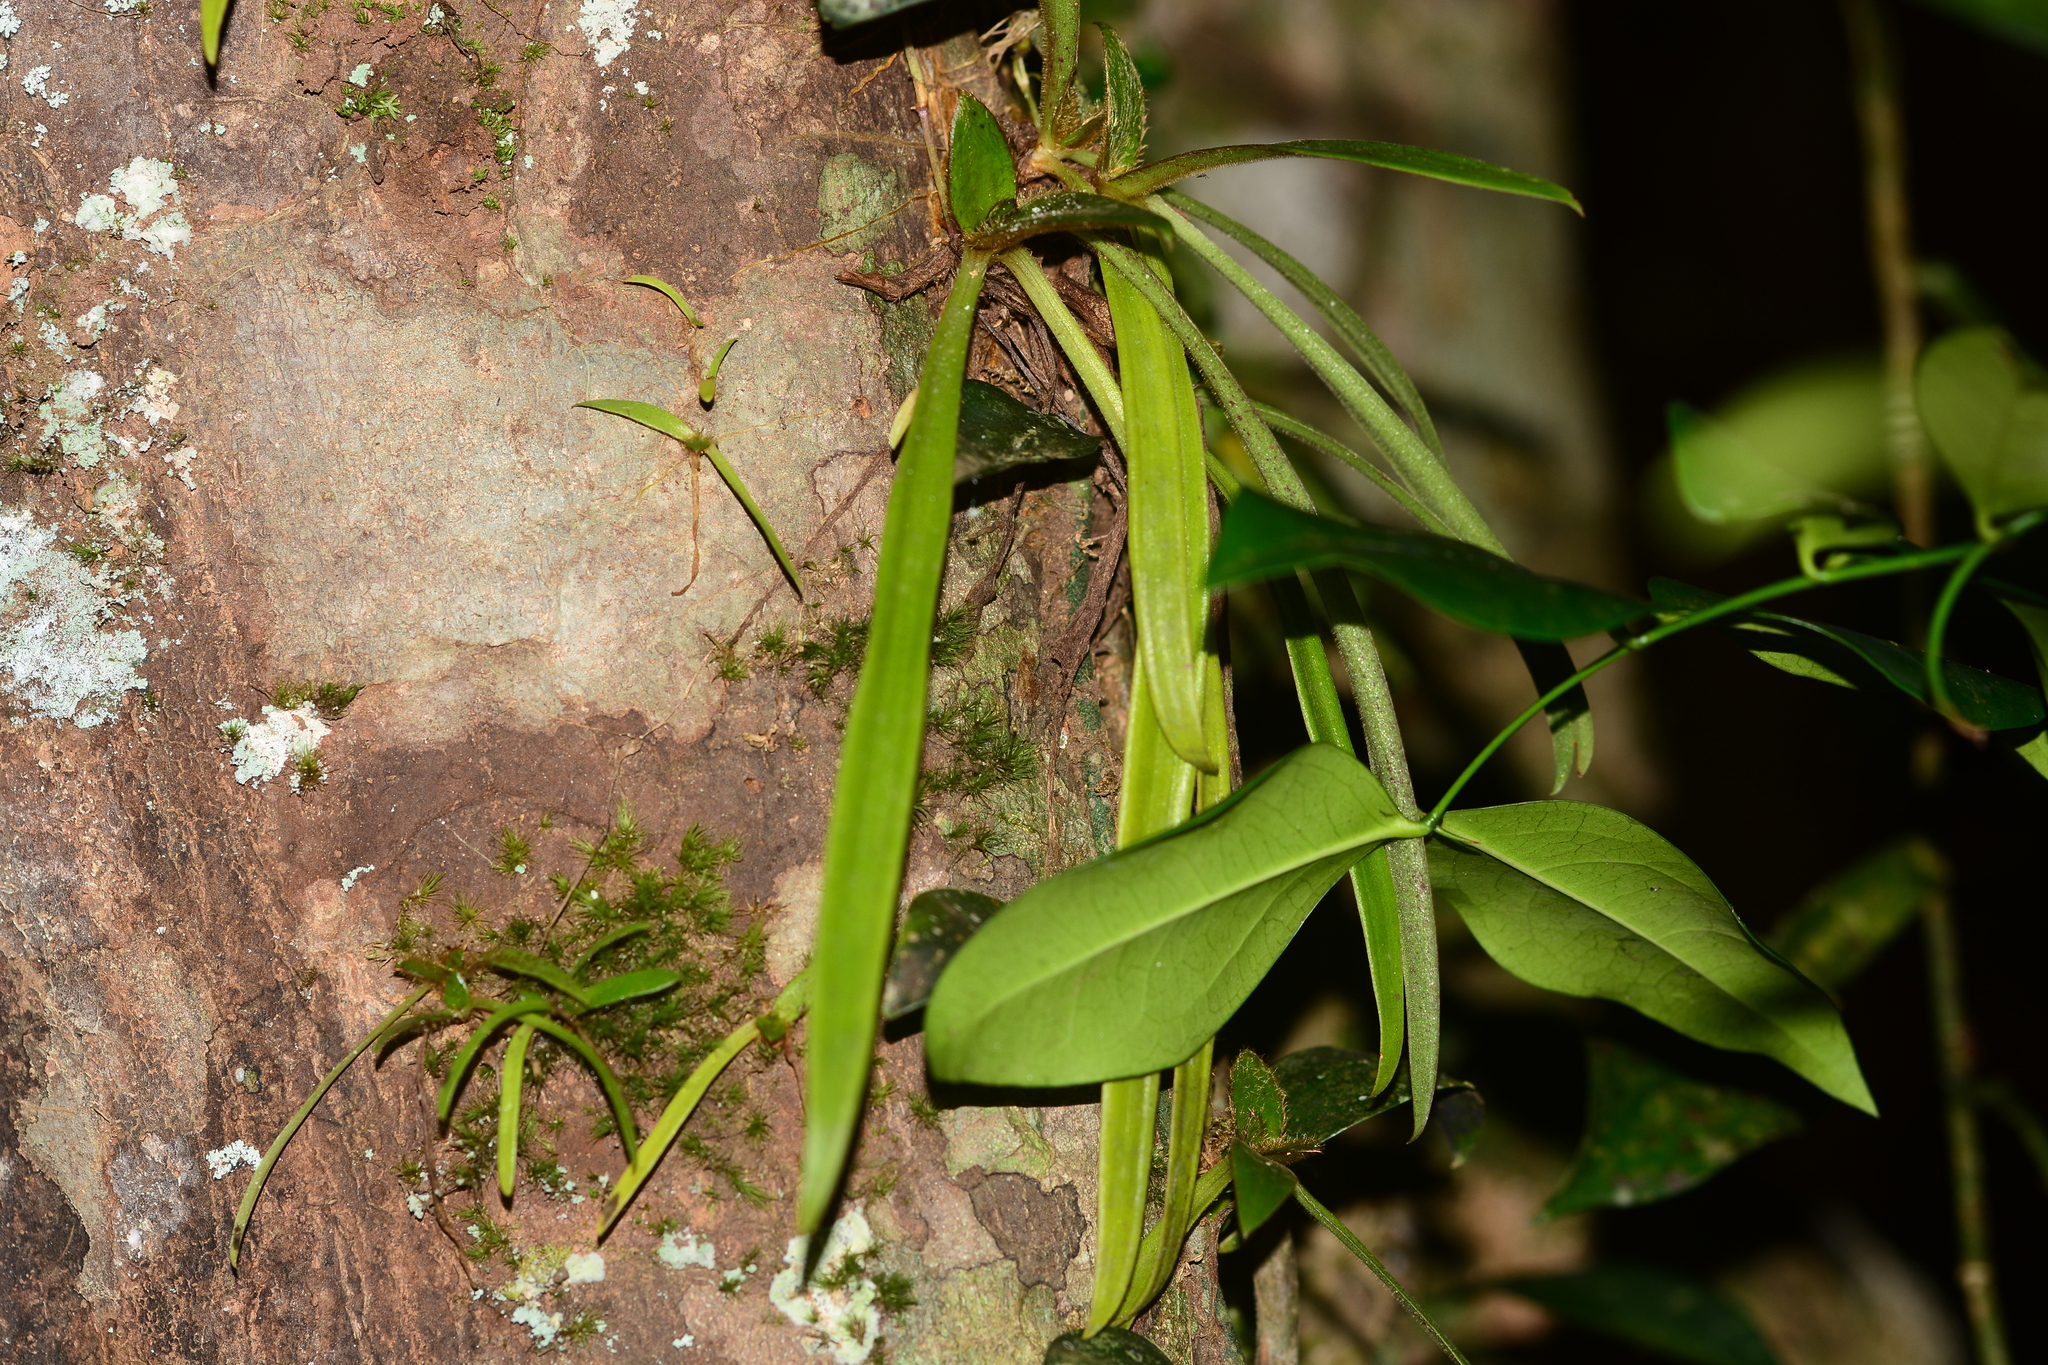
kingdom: Plantae
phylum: Tracheophyta
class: Liliopsida
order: Commelinales
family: Commelinaceae
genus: Cyanotis
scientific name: Cyanotis vivipara
